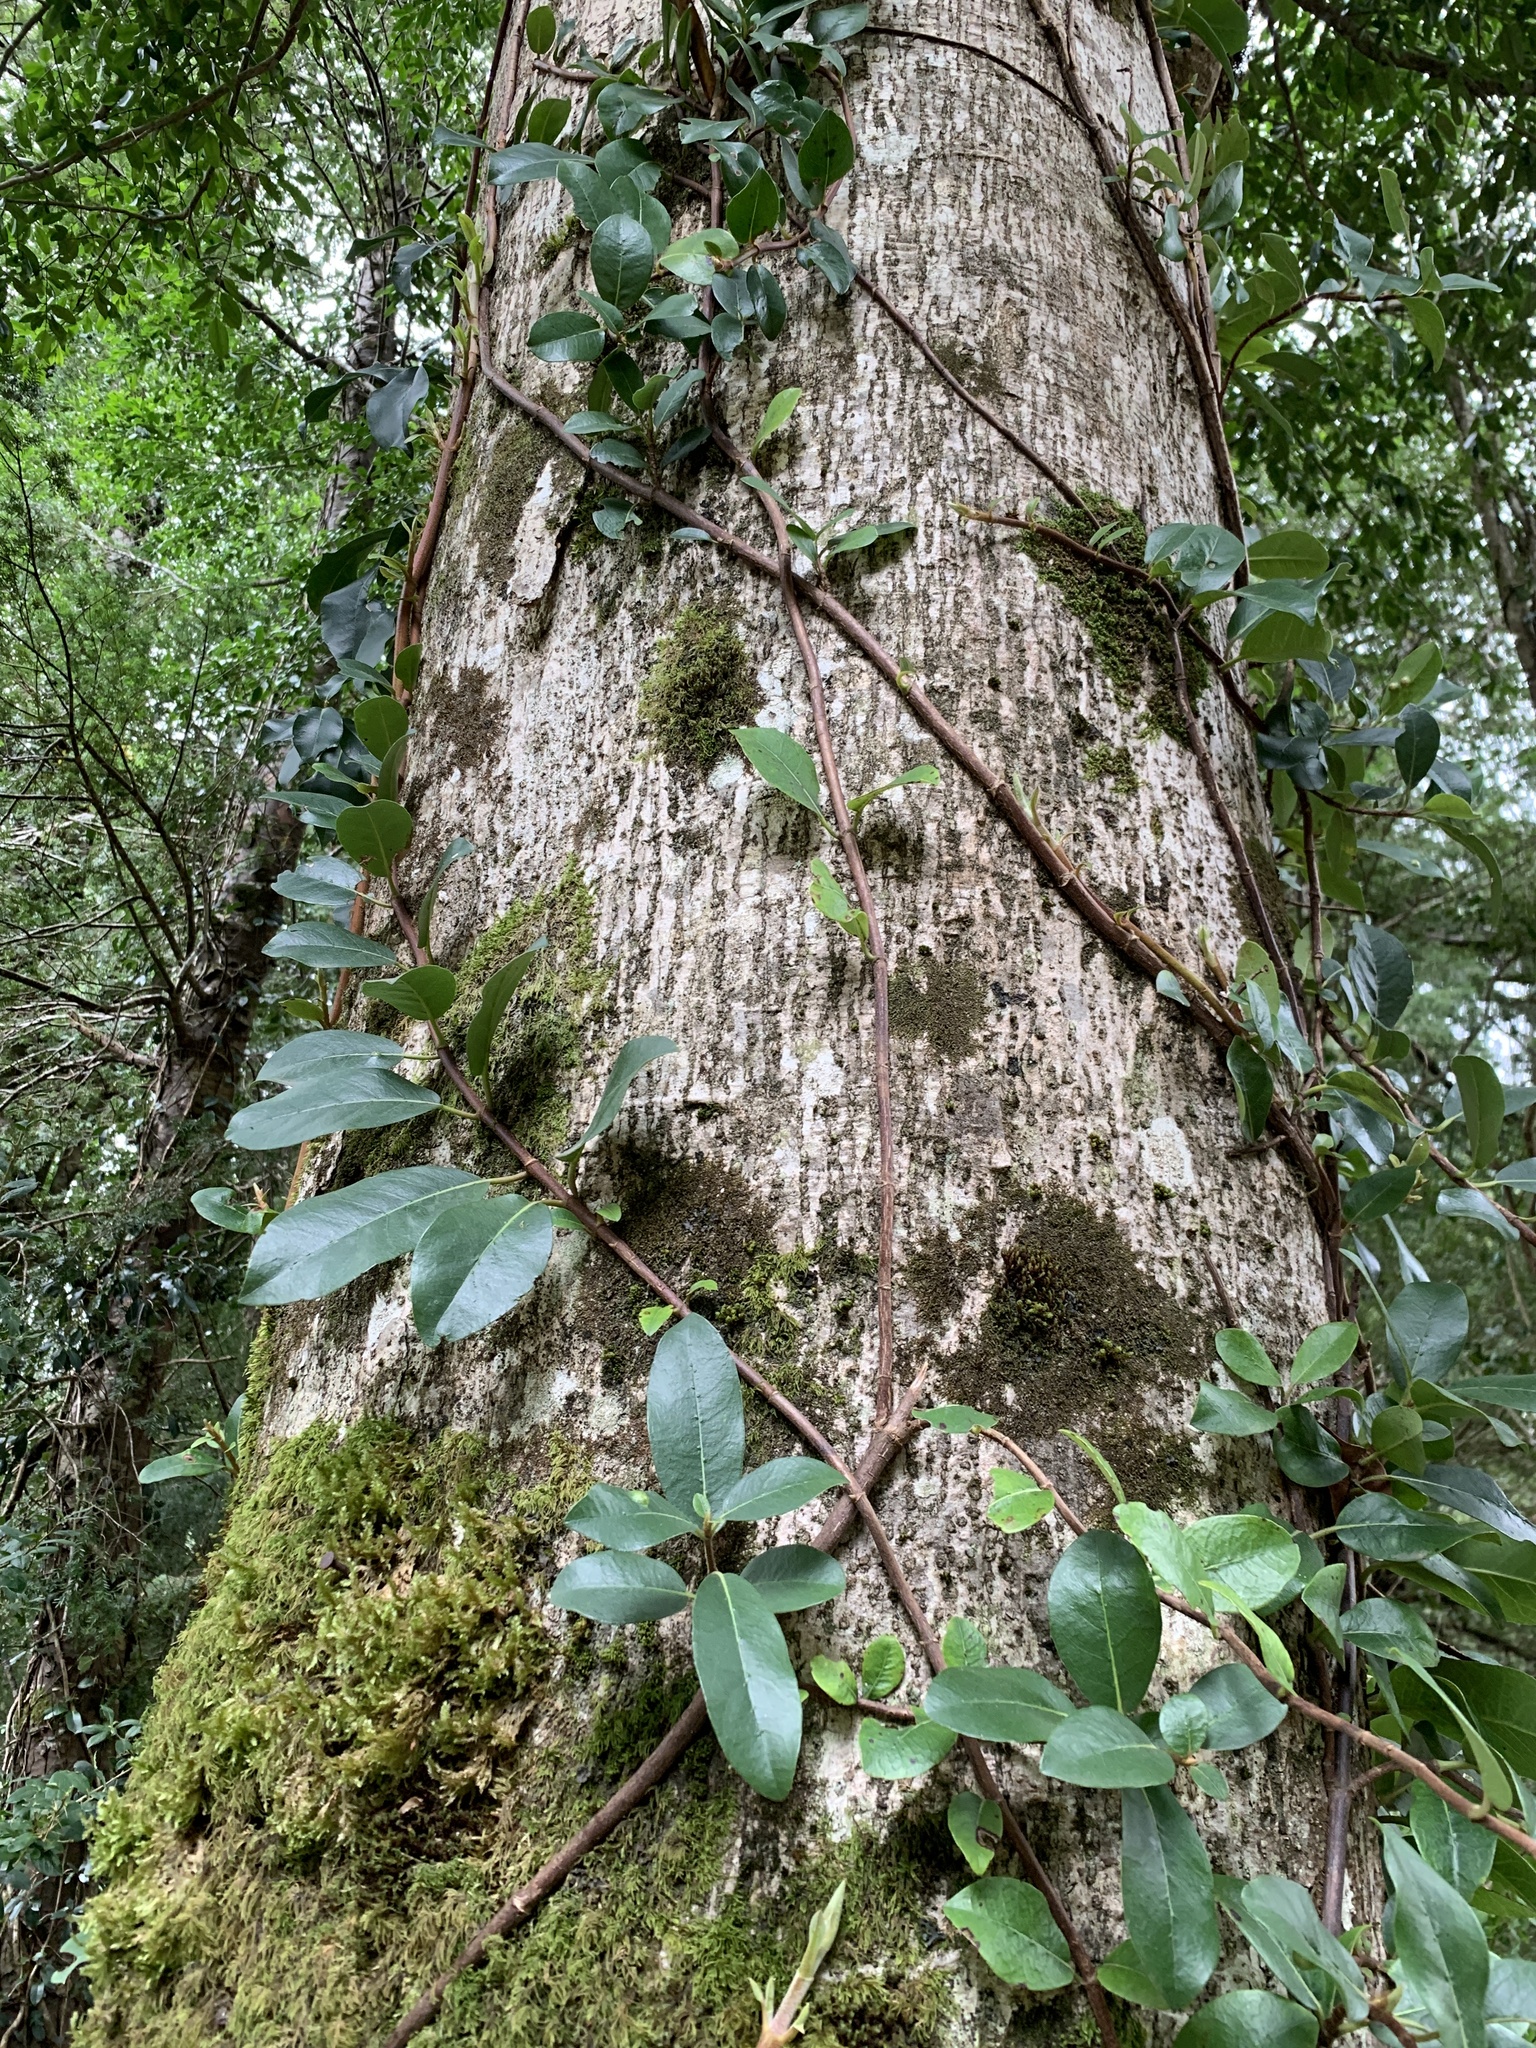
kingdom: Plantae
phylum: Tracheophyta
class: Magnoliopsida
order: Cornales
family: Hydrangeaceae
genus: Hydrangea
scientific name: Hydrangea serratifolia
